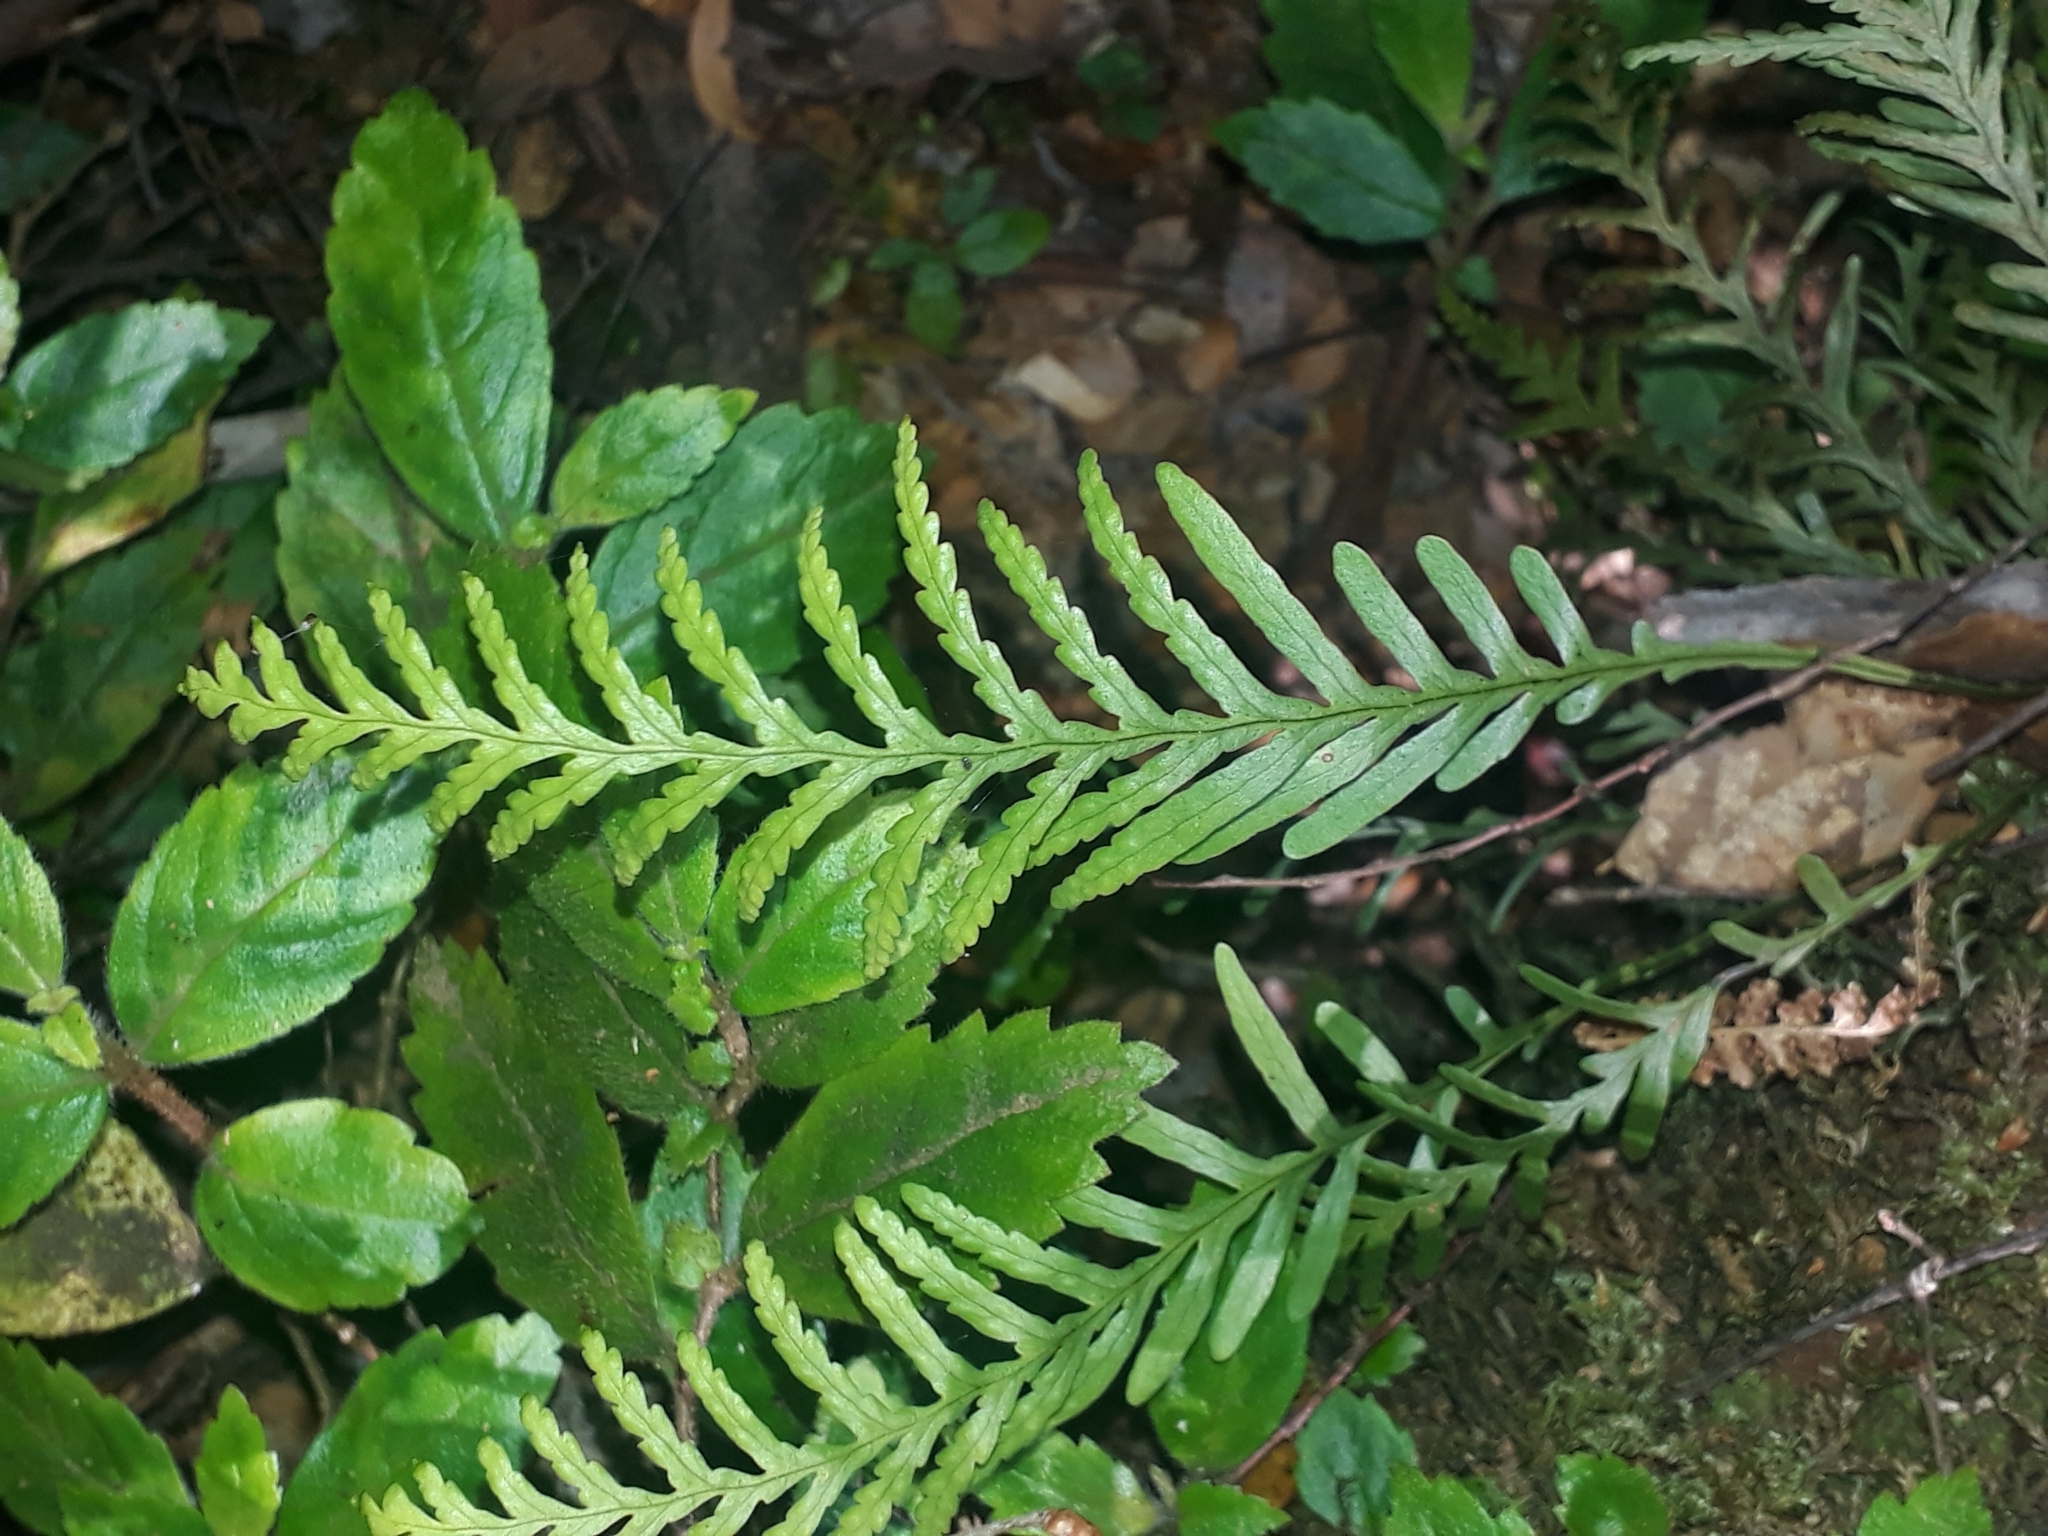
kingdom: Plantae
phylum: Tracheophyta
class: Polypodiopsida
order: Polypodiales
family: Polypodiaceae
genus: Notogrammitis
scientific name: Notogrammitis heterophylla
